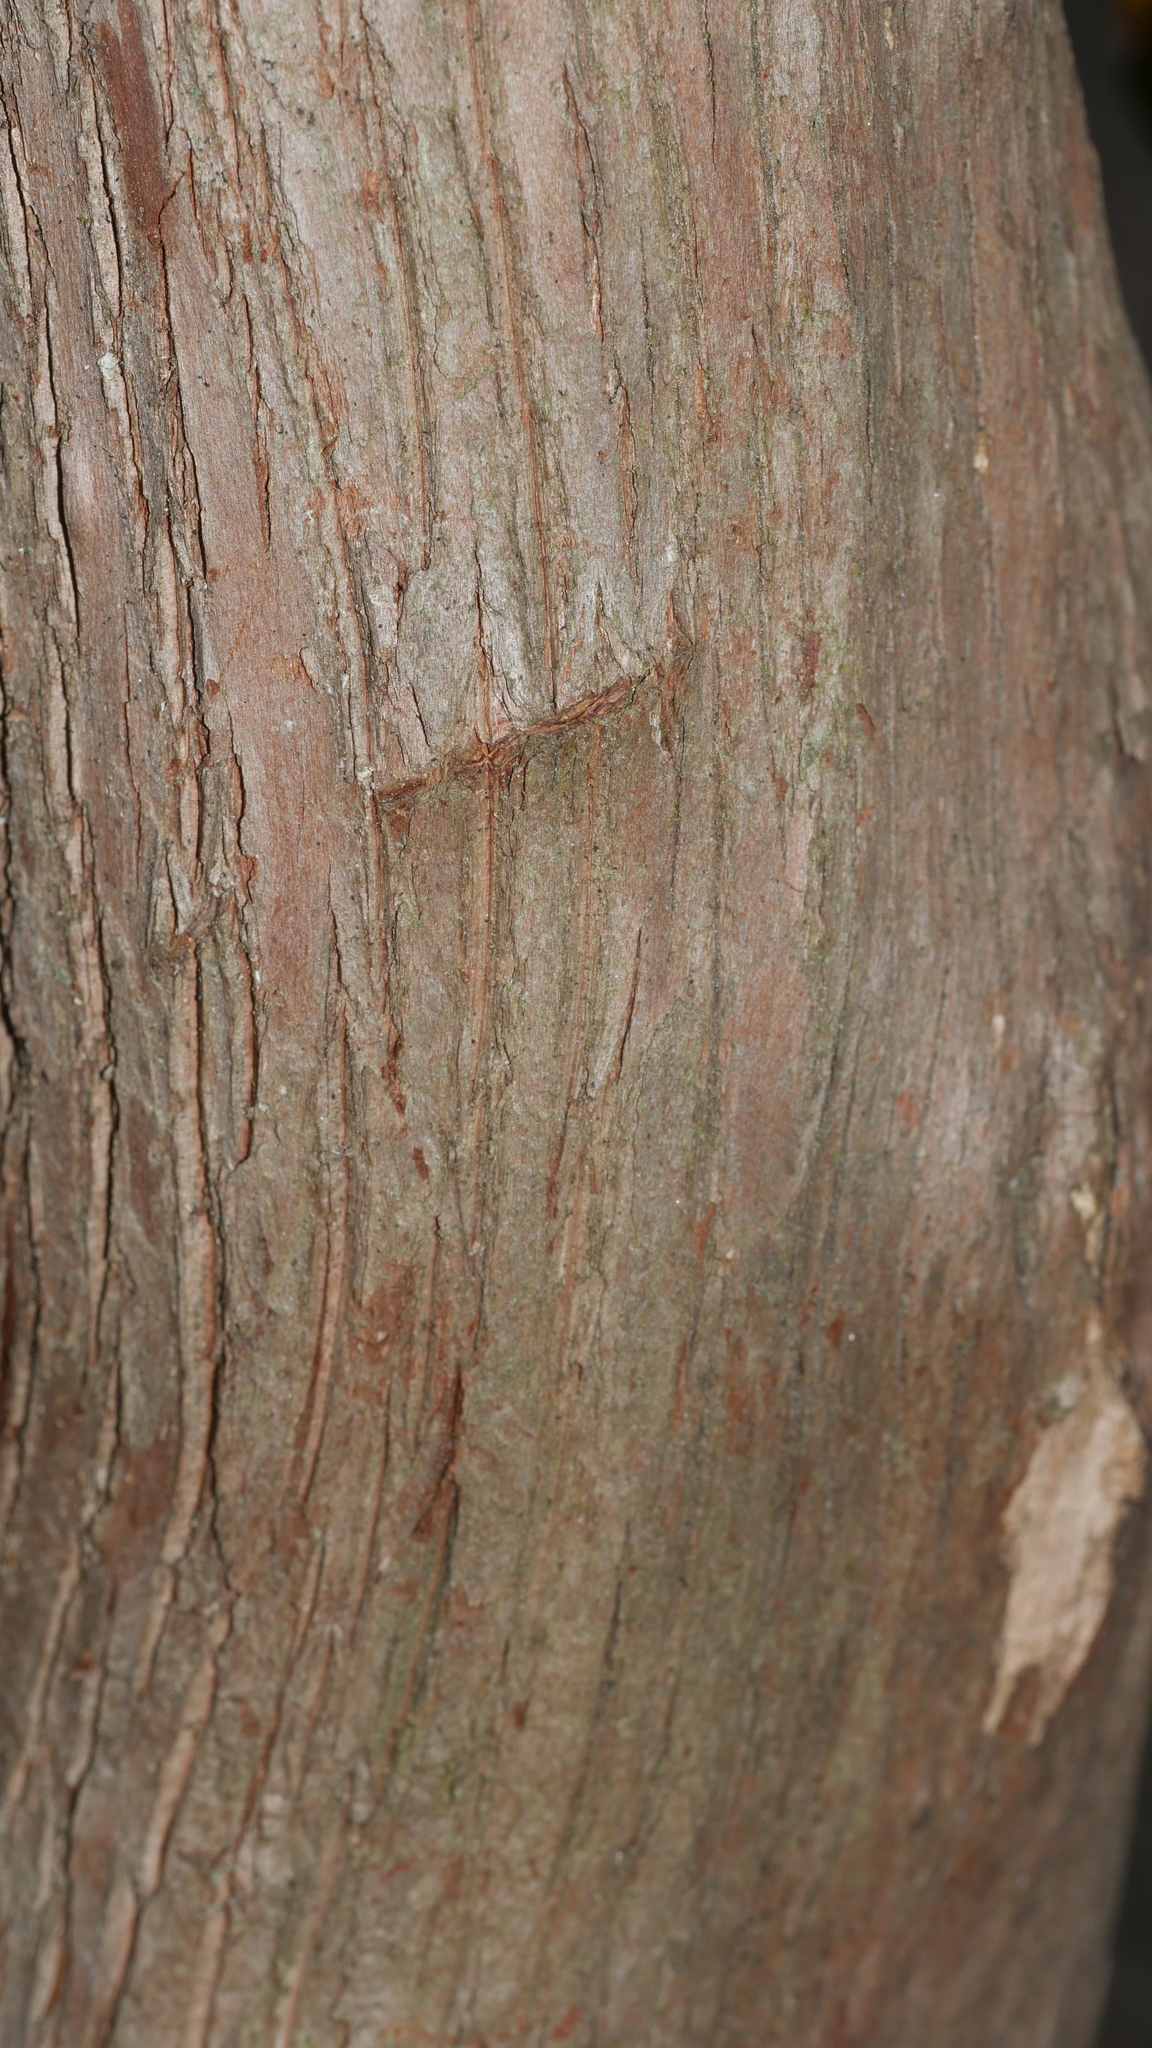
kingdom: Plantae
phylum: Tracheophyta
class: Magnoliopsida
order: Ericales
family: Ericaceae
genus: Kalmia
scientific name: Kalmia latifolia
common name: Mountain-laurel
